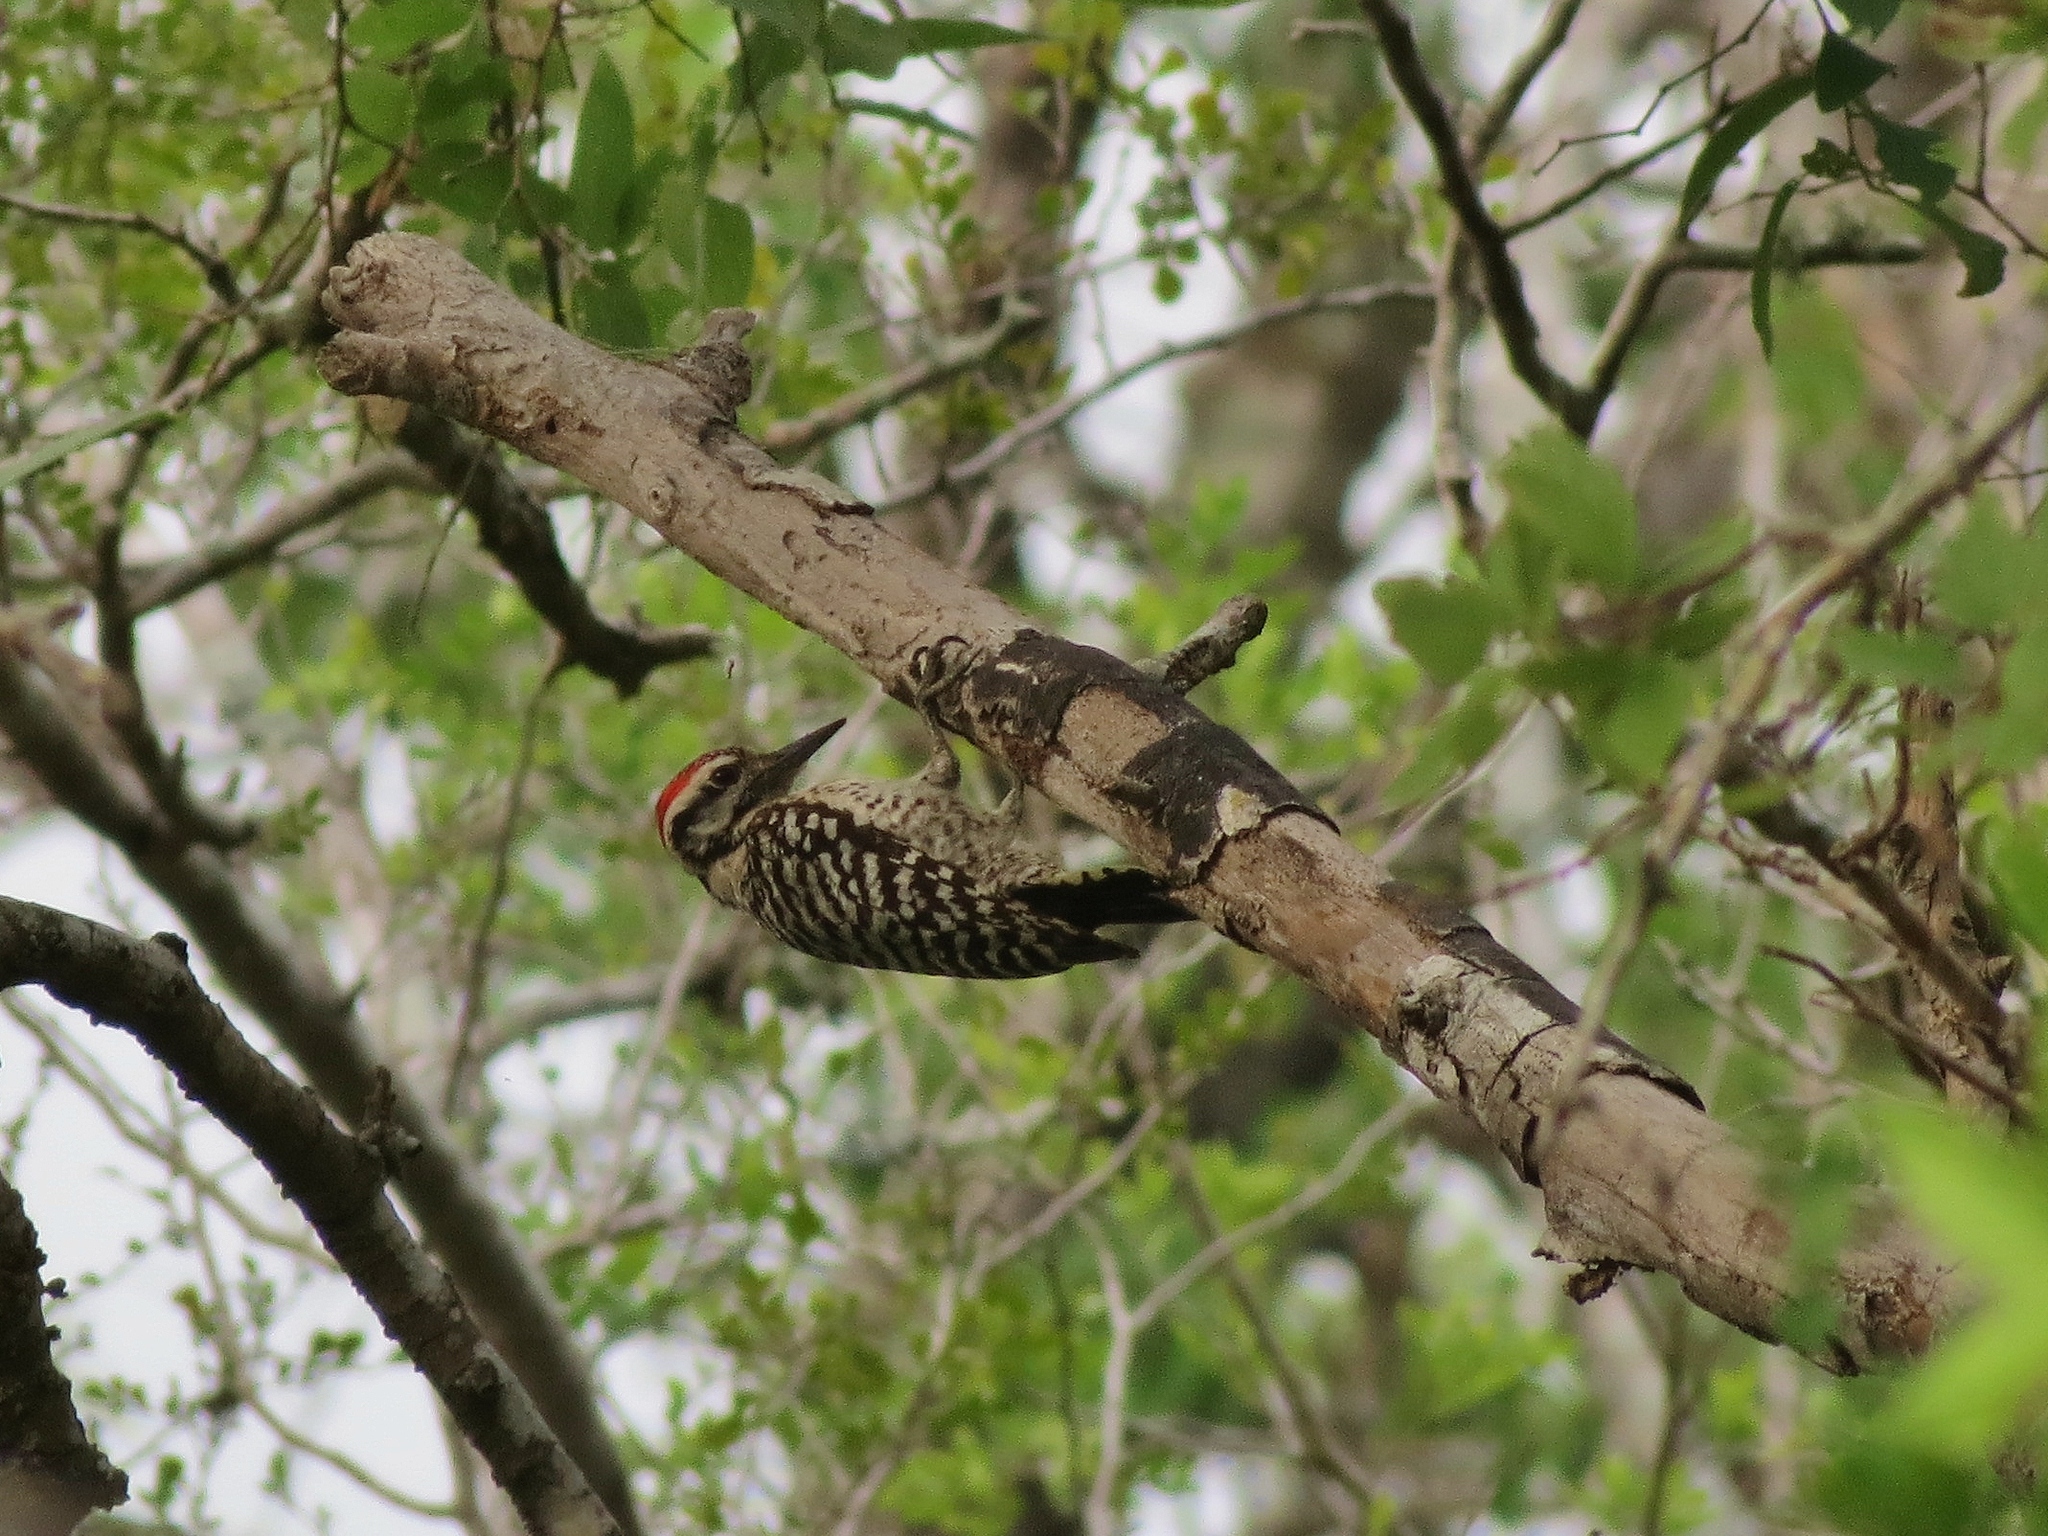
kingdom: Animalia
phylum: Chordata
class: Aves
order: Piciformes
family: Picidae
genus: Dryobates
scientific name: Dryobates scalaris
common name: Ladder-backed woodpecker
